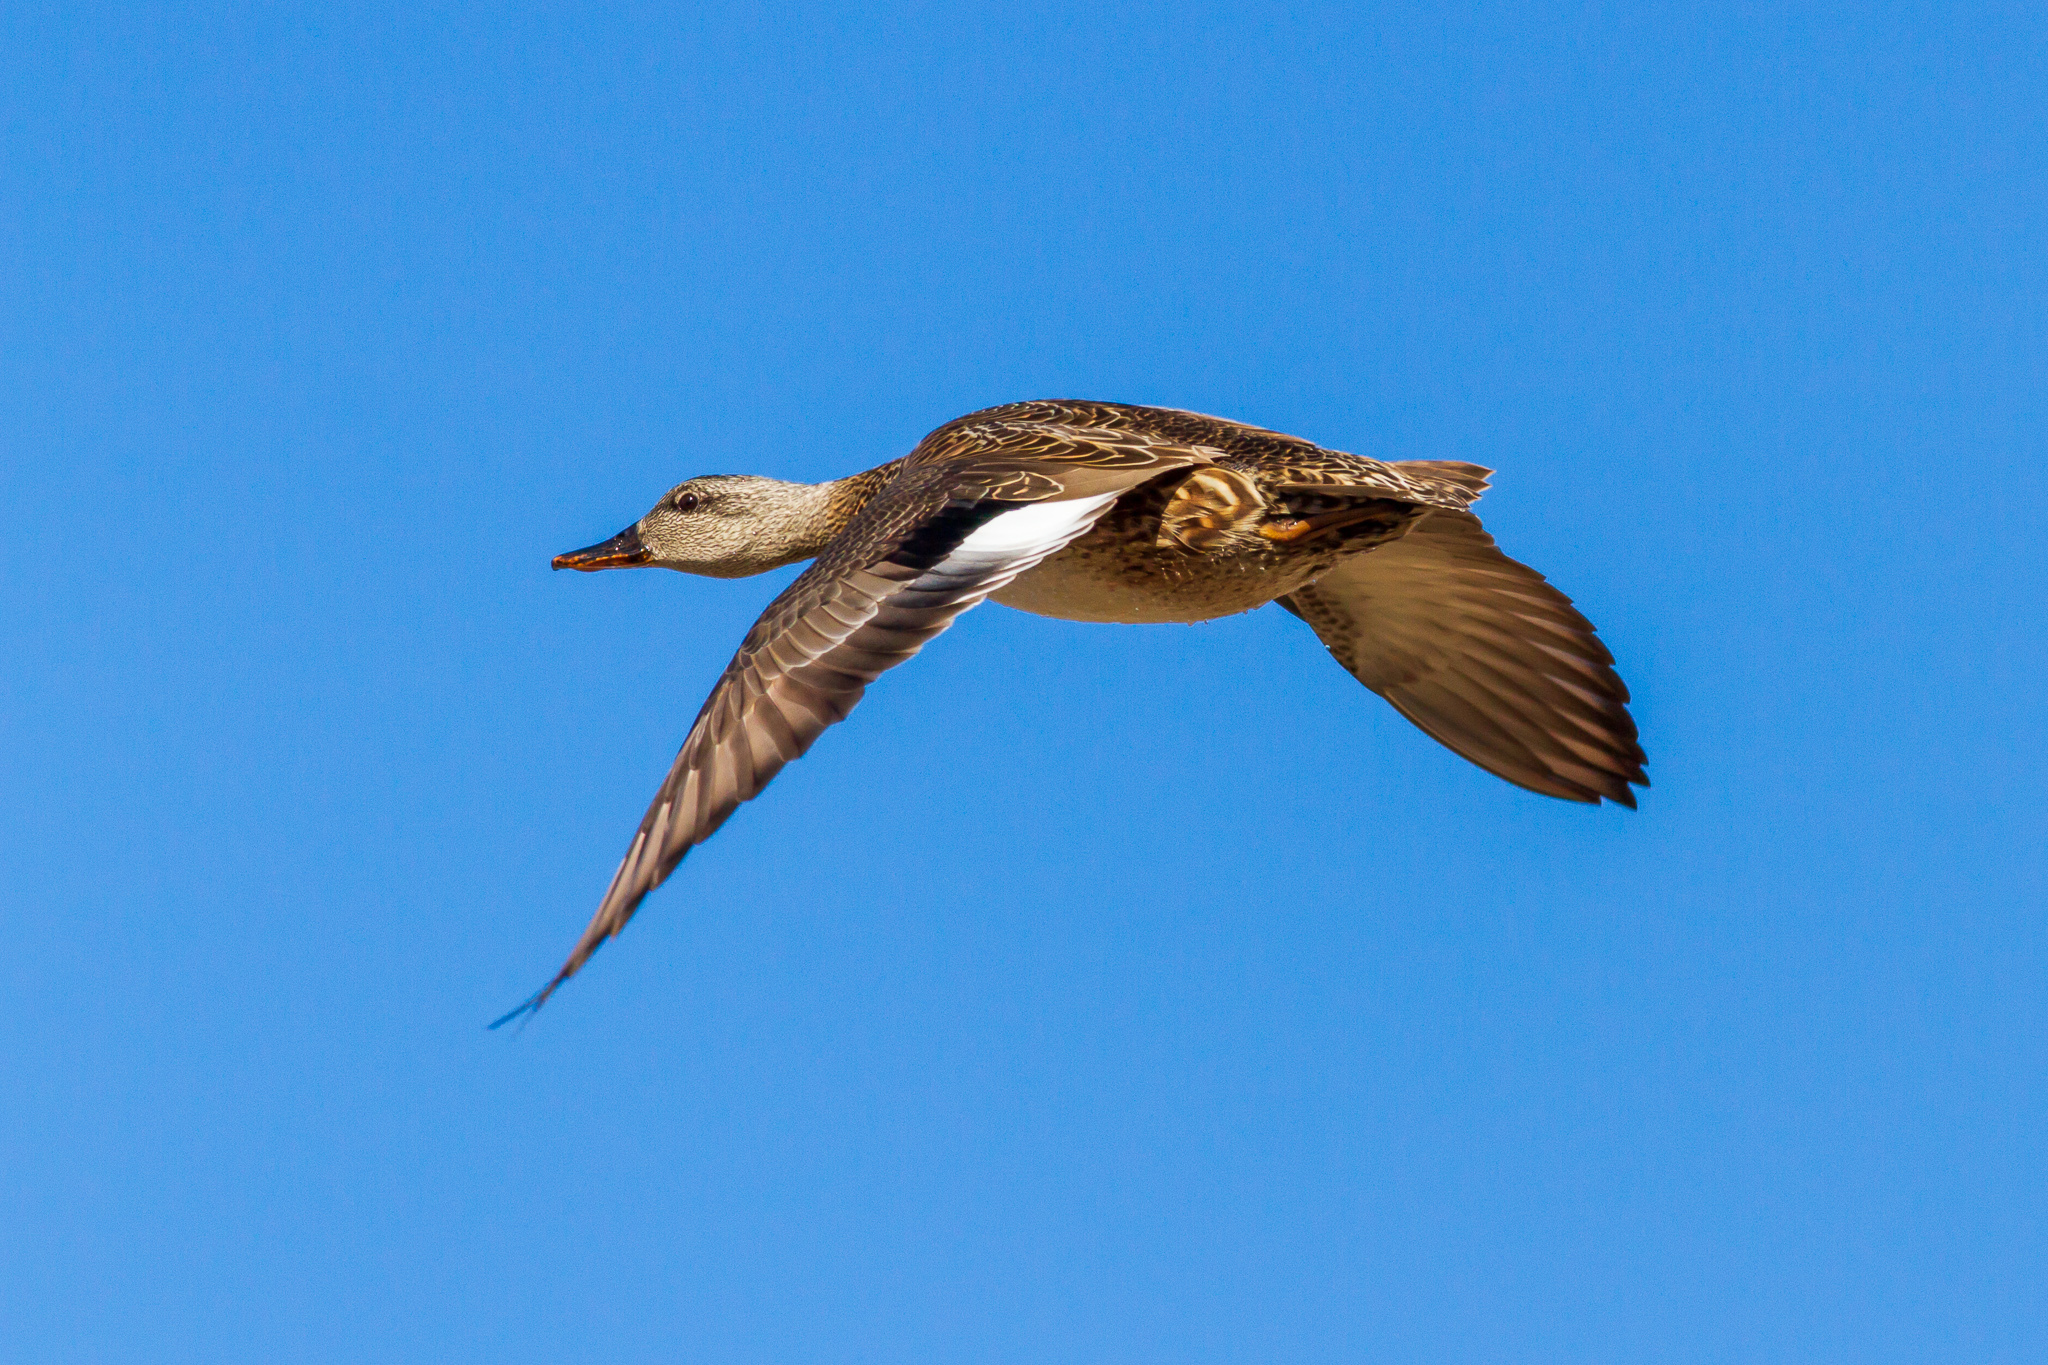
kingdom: Animalia
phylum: Chordata
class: Aves
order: Anseriformes
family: Anatidae
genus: Mareca
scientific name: Mareca strepera
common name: Gadwall
